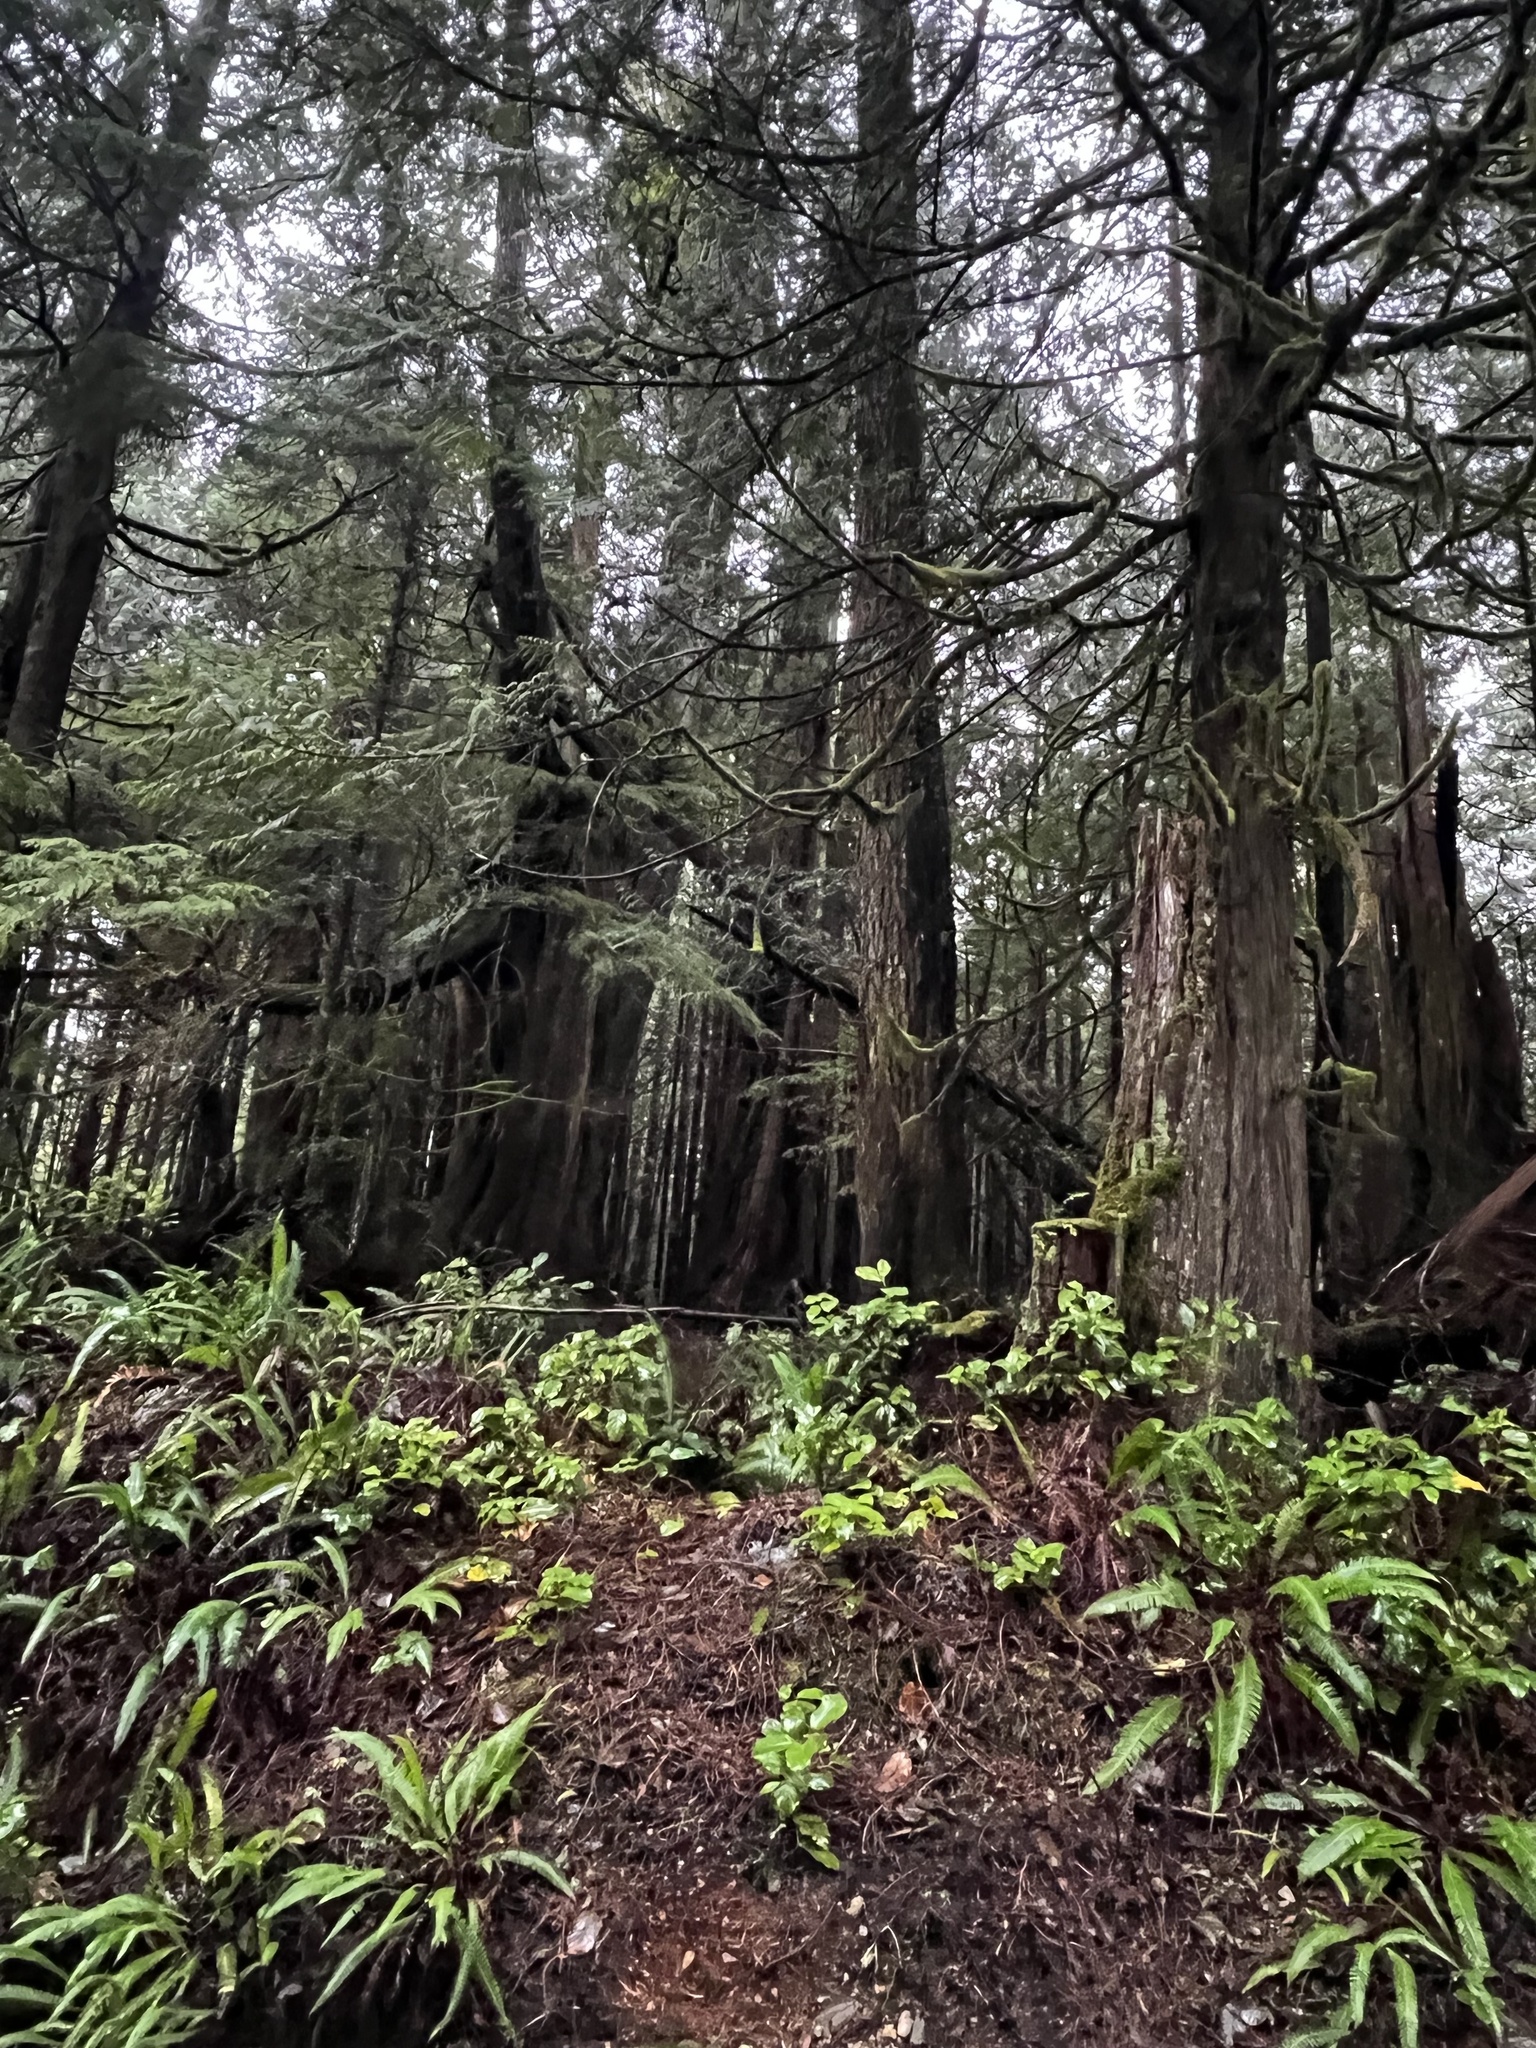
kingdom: Plantae
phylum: Tracheophyta
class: Pinopsida
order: Pinales
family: Cupressaceae
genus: Thuja
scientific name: Thuja plicata
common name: Western red-cedar
